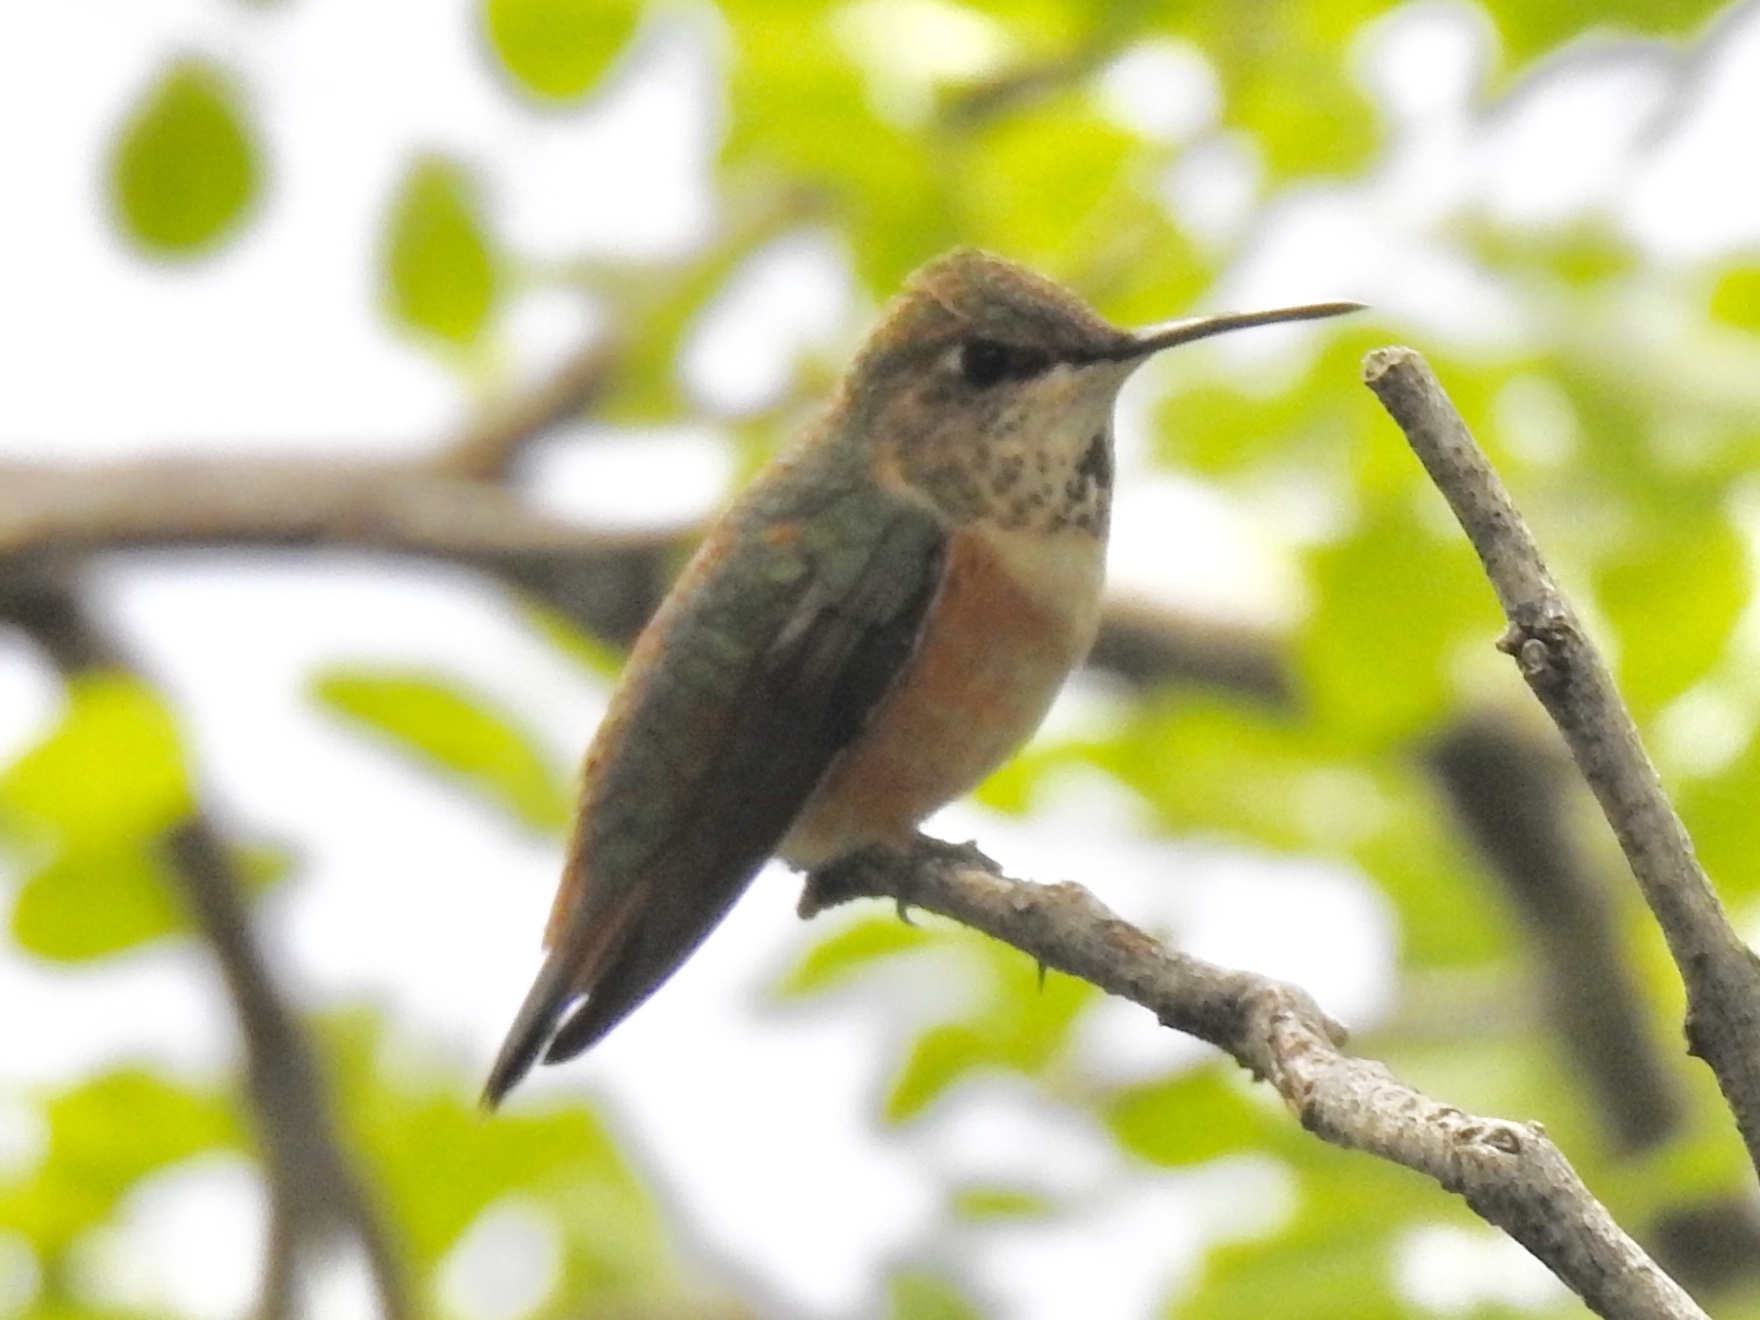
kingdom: Animalia
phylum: Chordata
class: Aves
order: Apodiformes
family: Trochilidae
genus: Selasphorus
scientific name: Selasphorus rufus
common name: Rufous hummingbird
